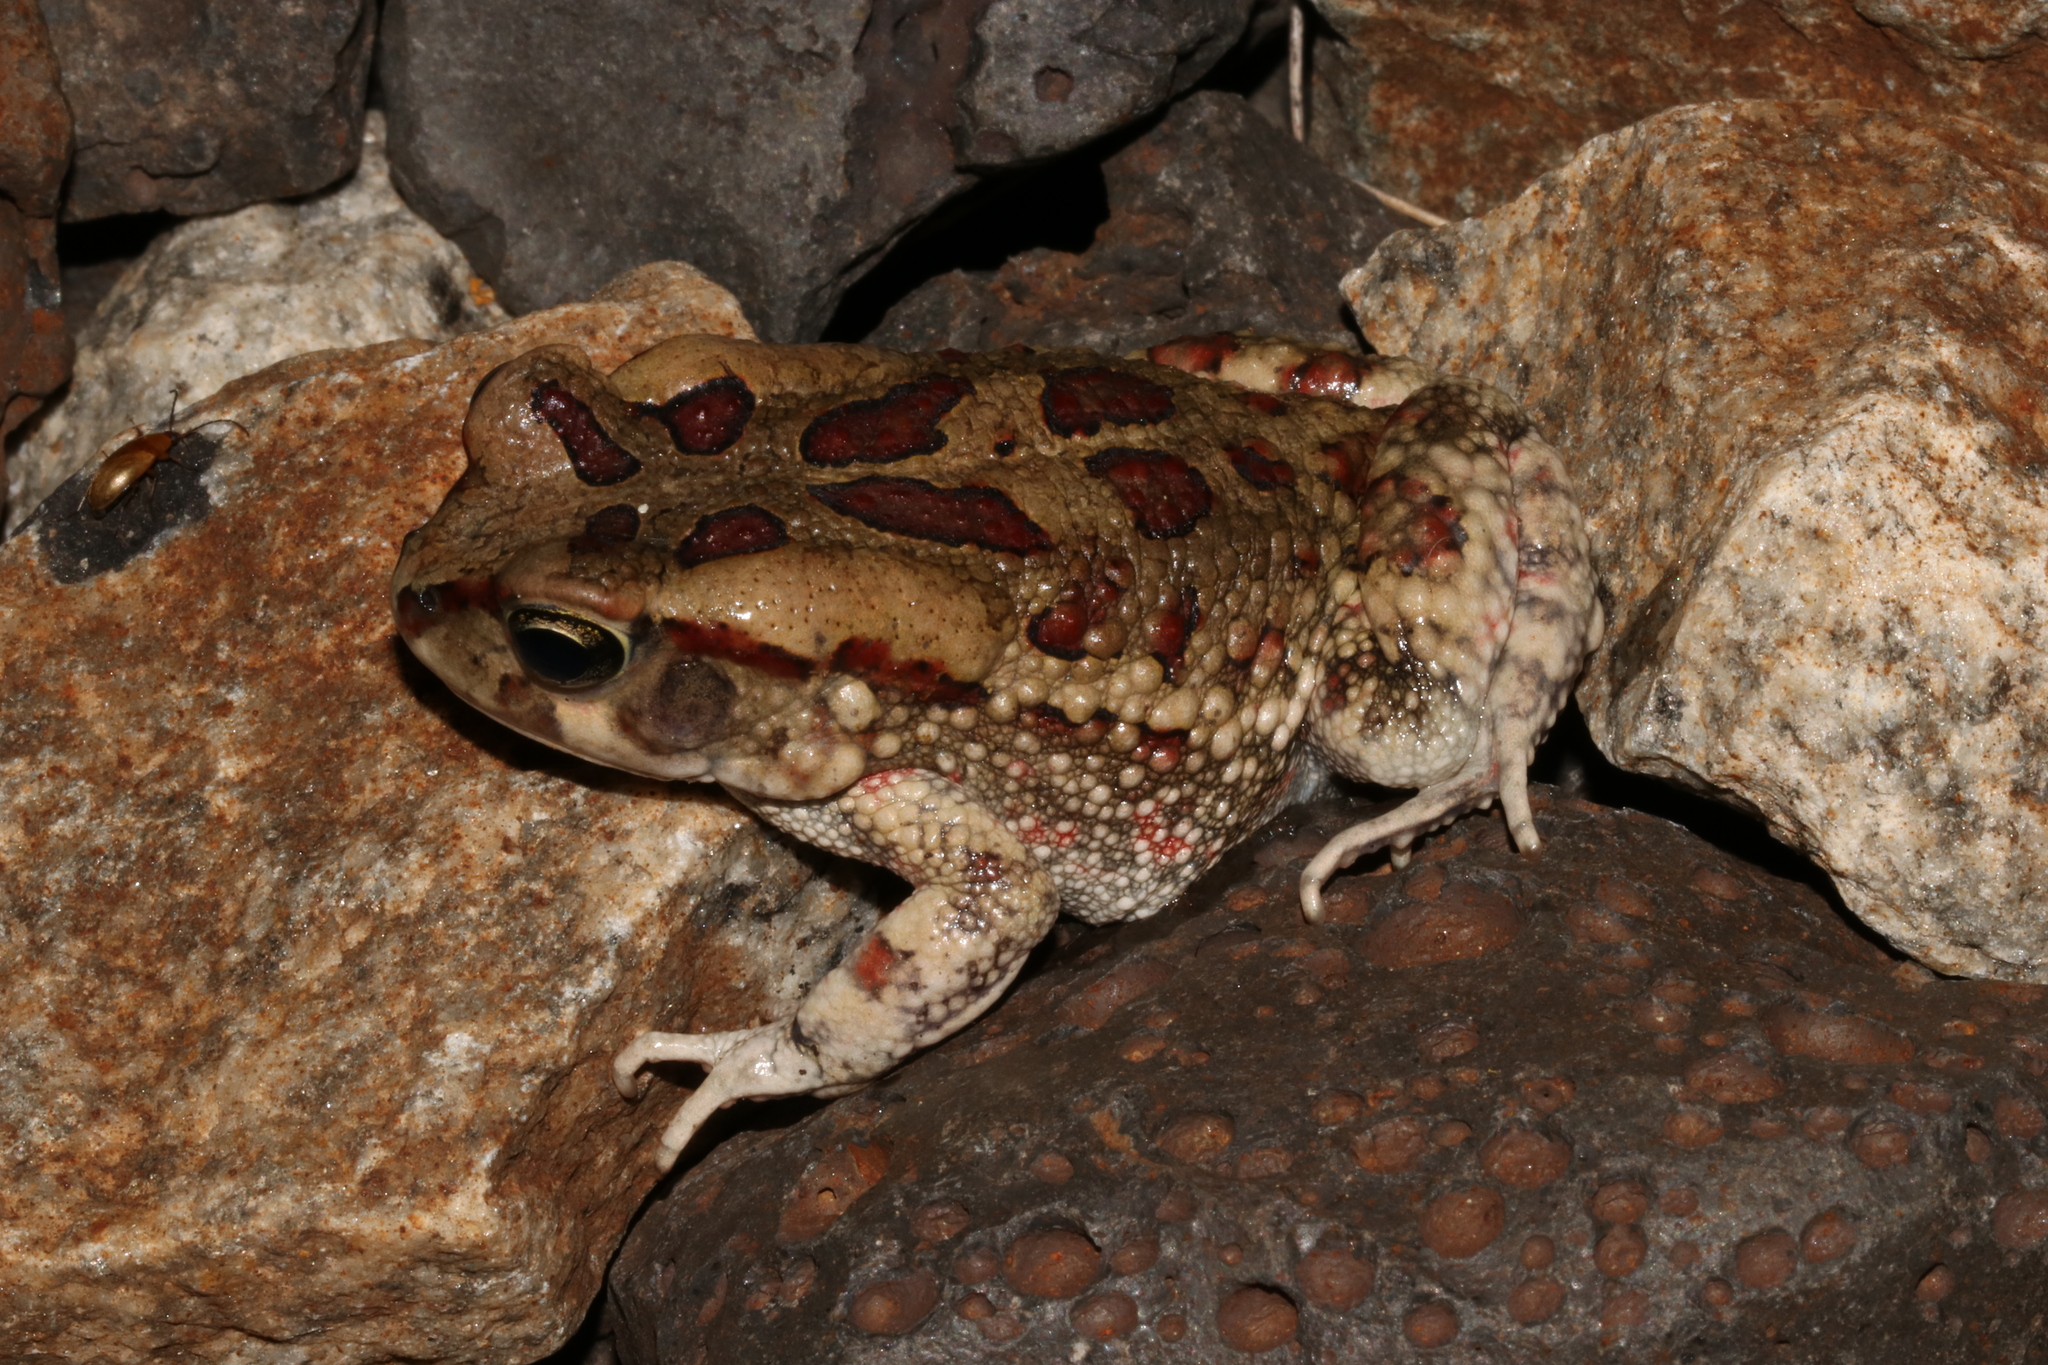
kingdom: Animalia
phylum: Chordata
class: Amphibia
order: Anura
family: Bufonidae
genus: Sclerophrys
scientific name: Sclerophrys garmani
